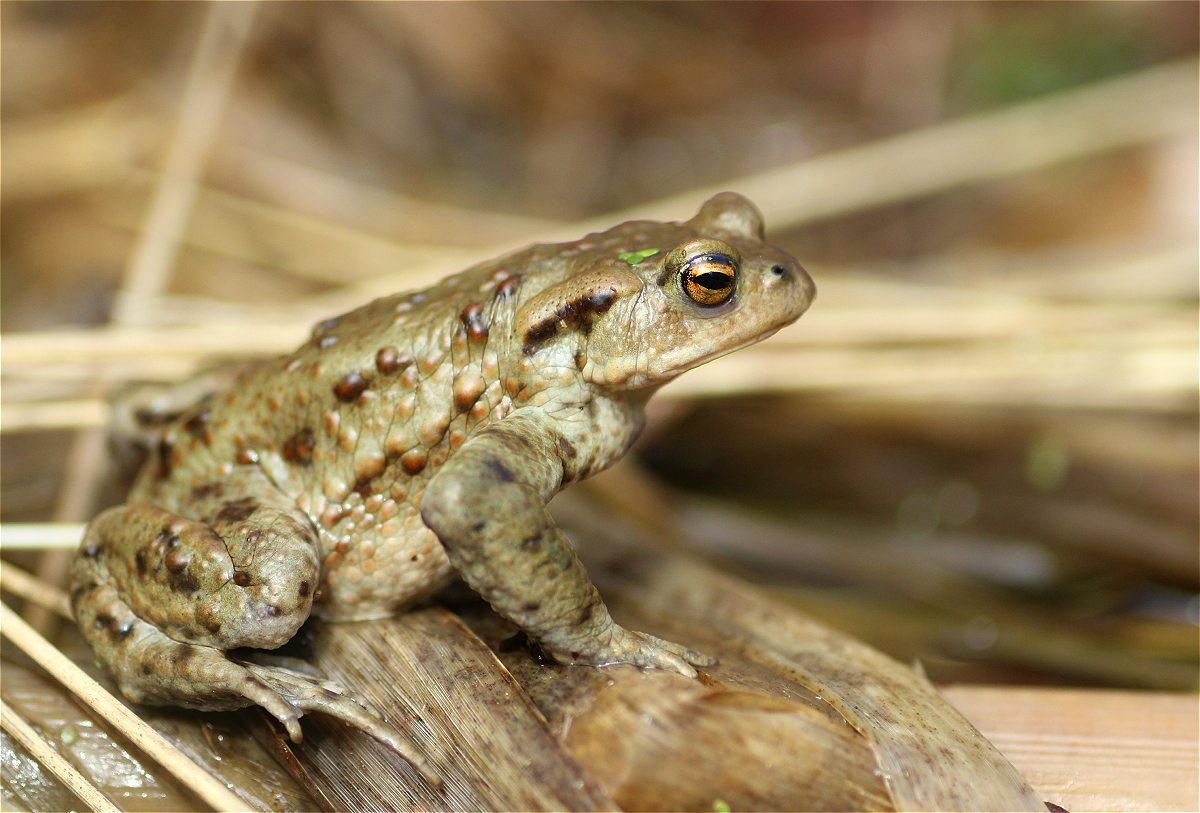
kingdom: Animalia
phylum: Chordata
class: Amphibia
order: Anura
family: Bufonidae
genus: Bufo
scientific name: Bufo bufo
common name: Common toad
